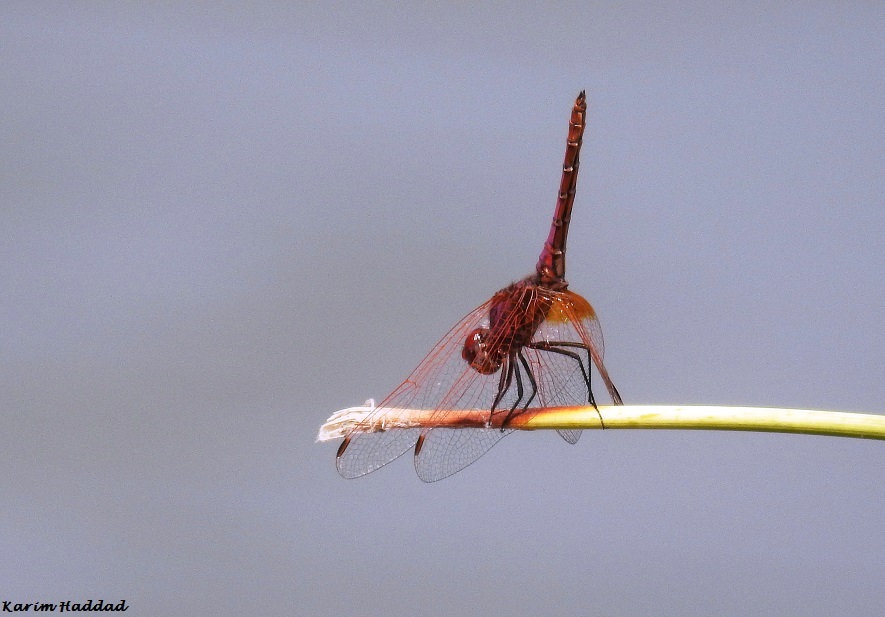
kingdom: Animalia
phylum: Arthropoda
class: Insecta
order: Odonata
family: Libellulidae
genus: Trithemis
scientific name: Trithemis annulata
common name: Violet dropwing
